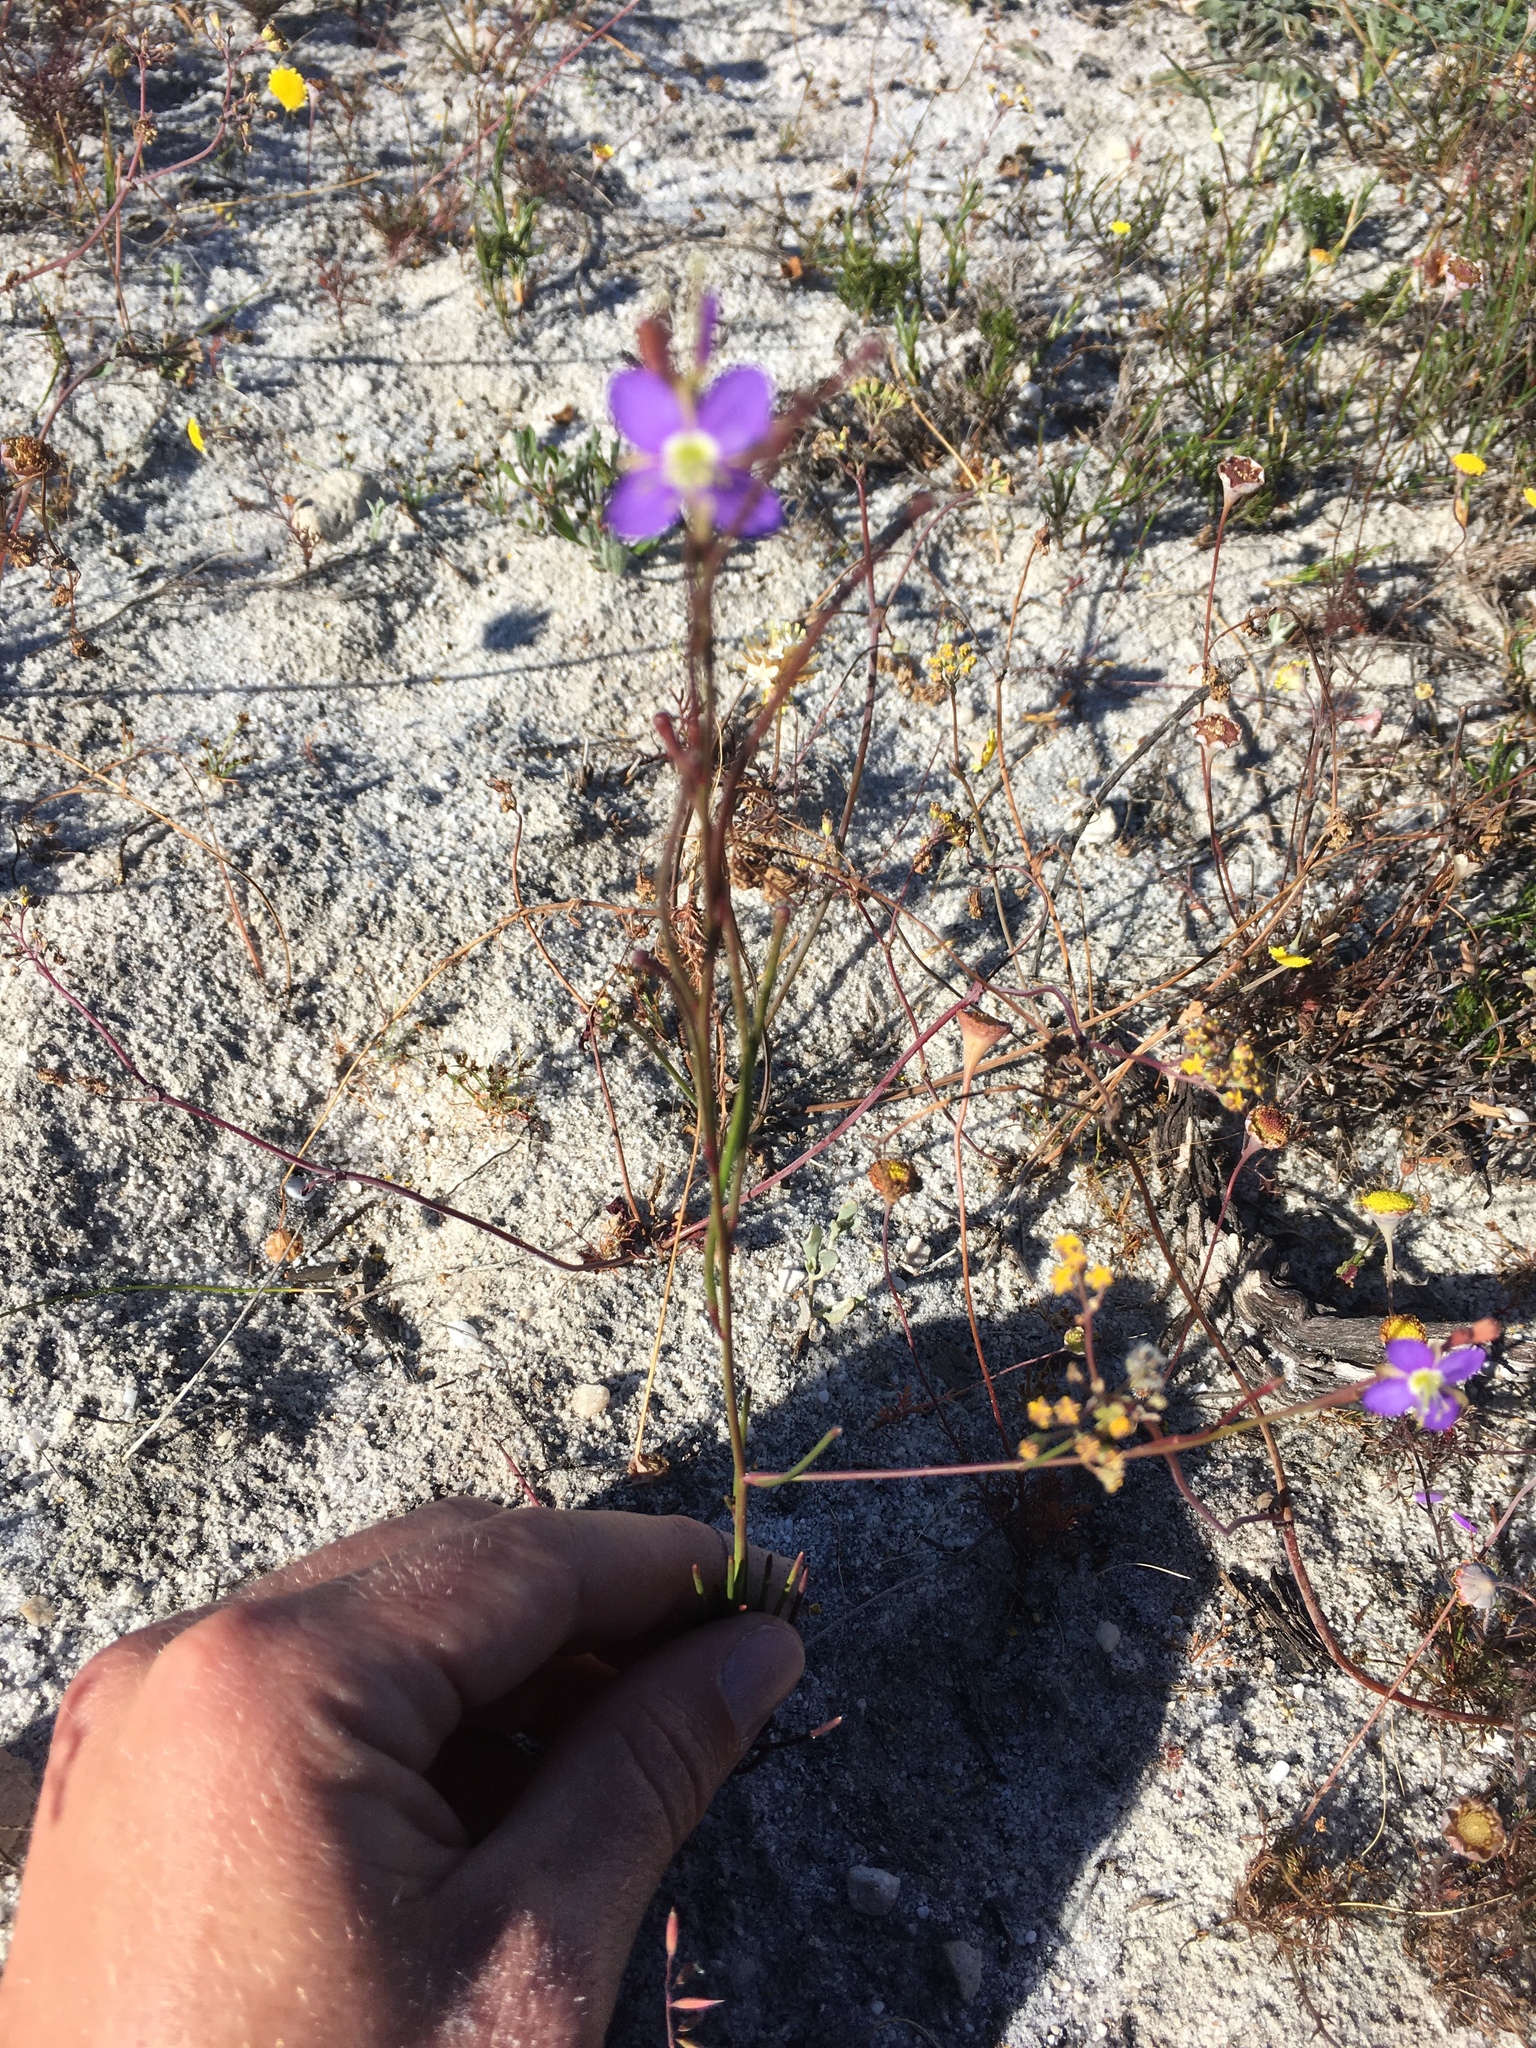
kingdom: Plantae
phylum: Tracheophyta
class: Magnoliopsida
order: Brassicales
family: Brassicaceae
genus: Heliophila
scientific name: Heliophila adpressa
